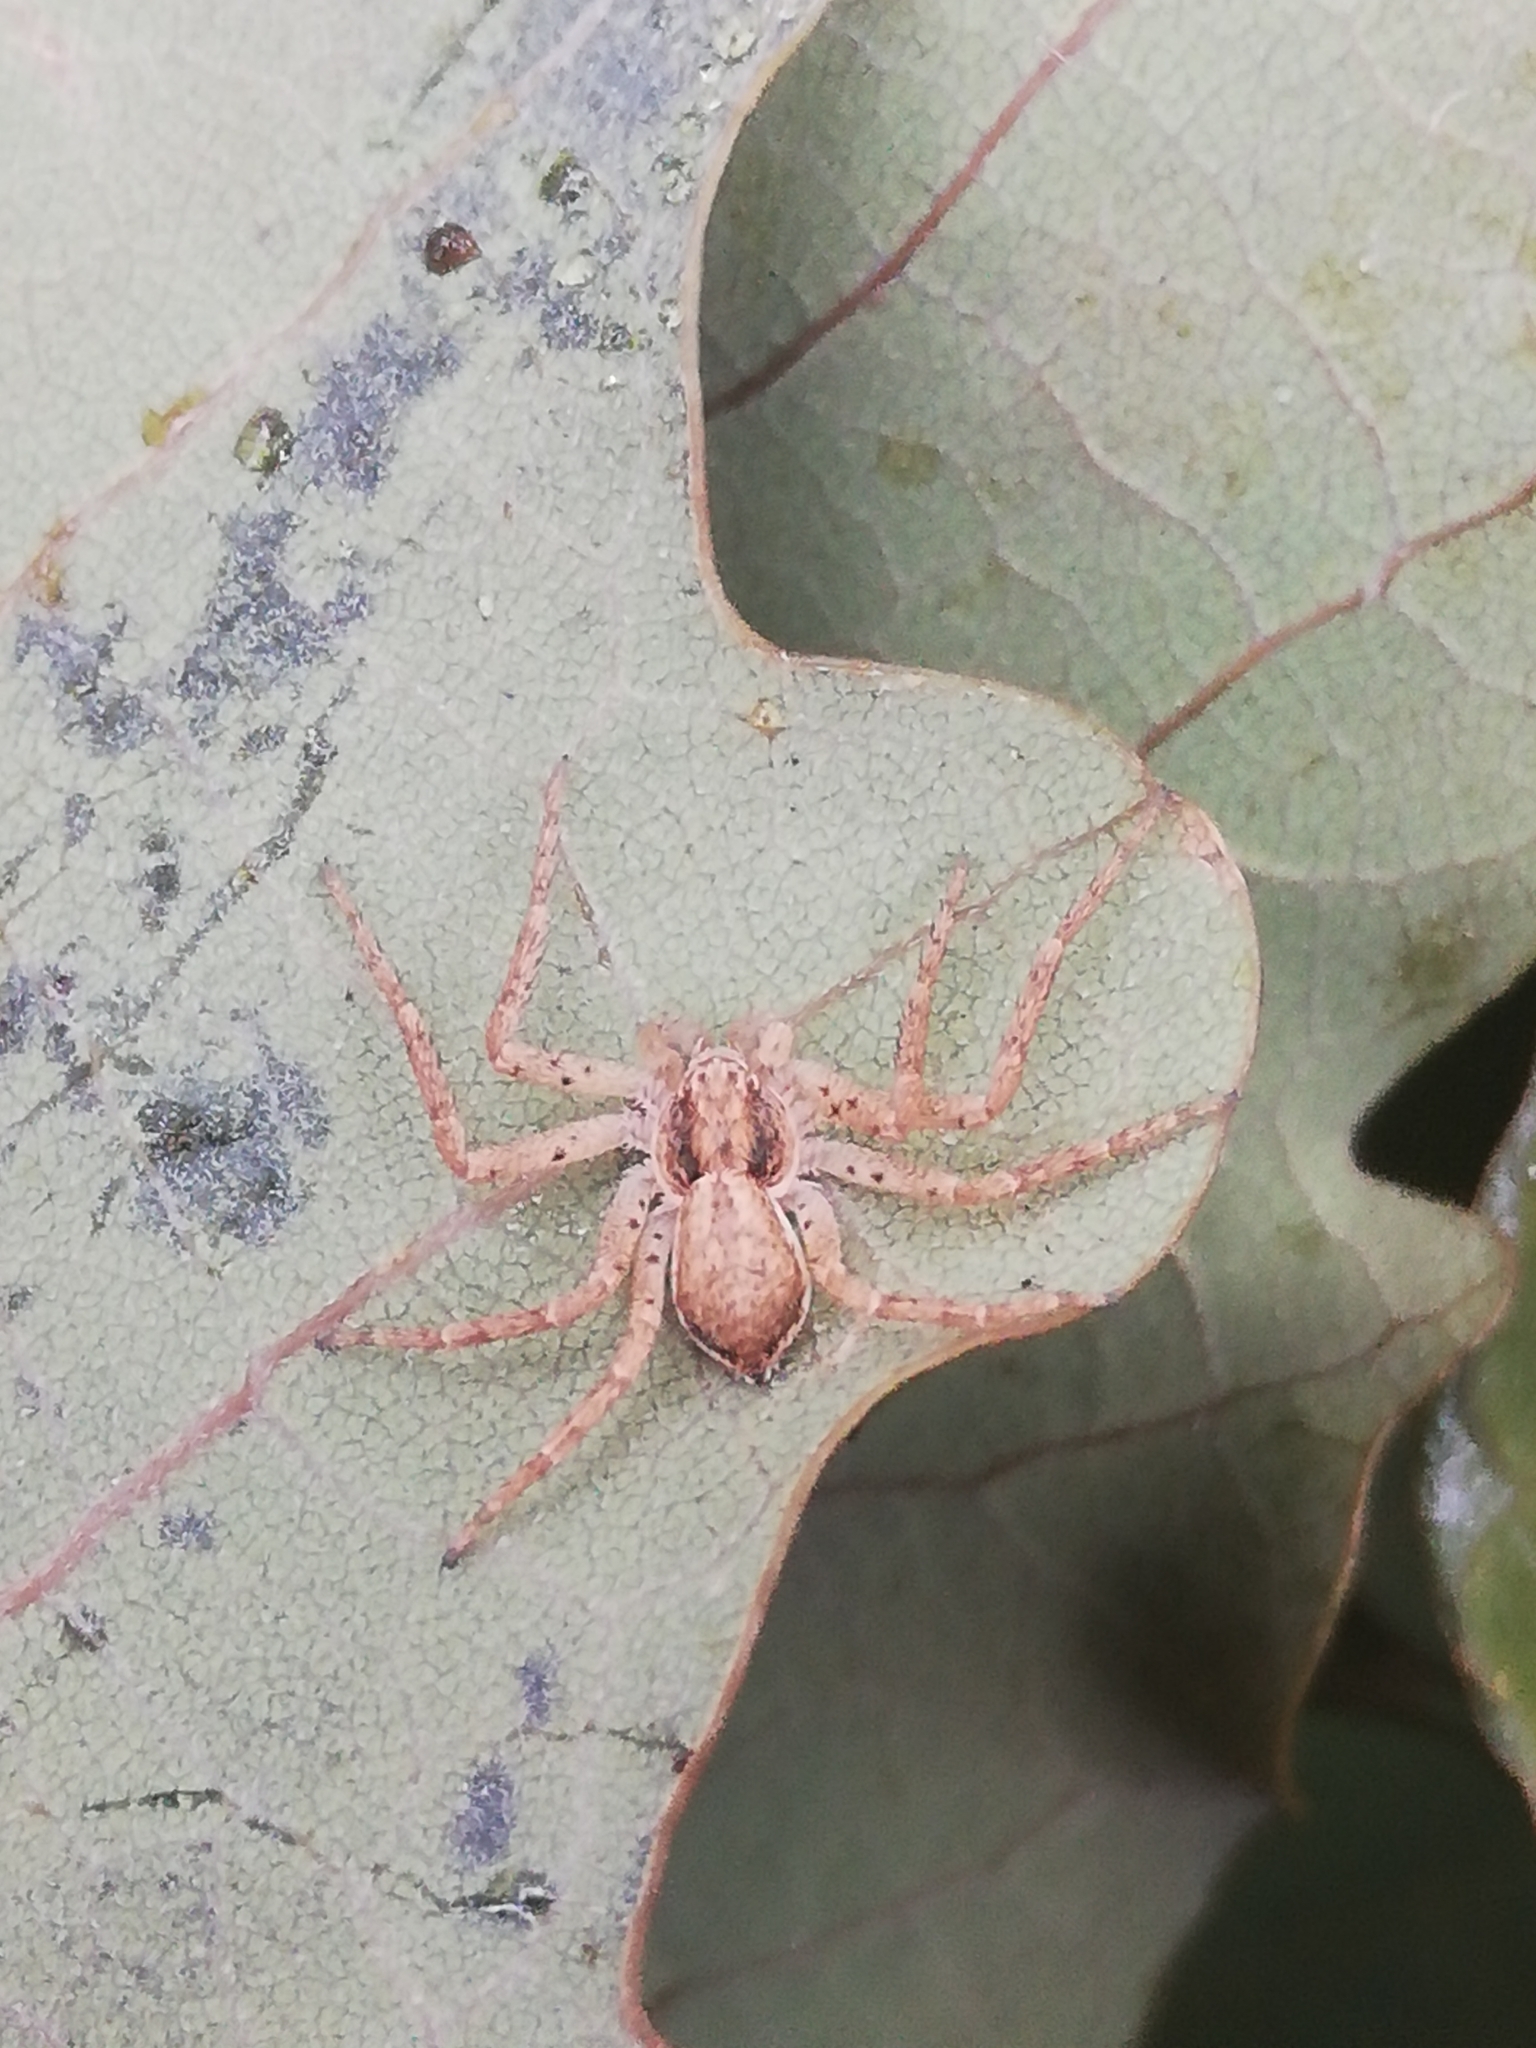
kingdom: Animalia
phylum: Arthropoda
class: Arachnida
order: Araneae
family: Philodromidae
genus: Philodromus
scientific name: Philodromus dispar
